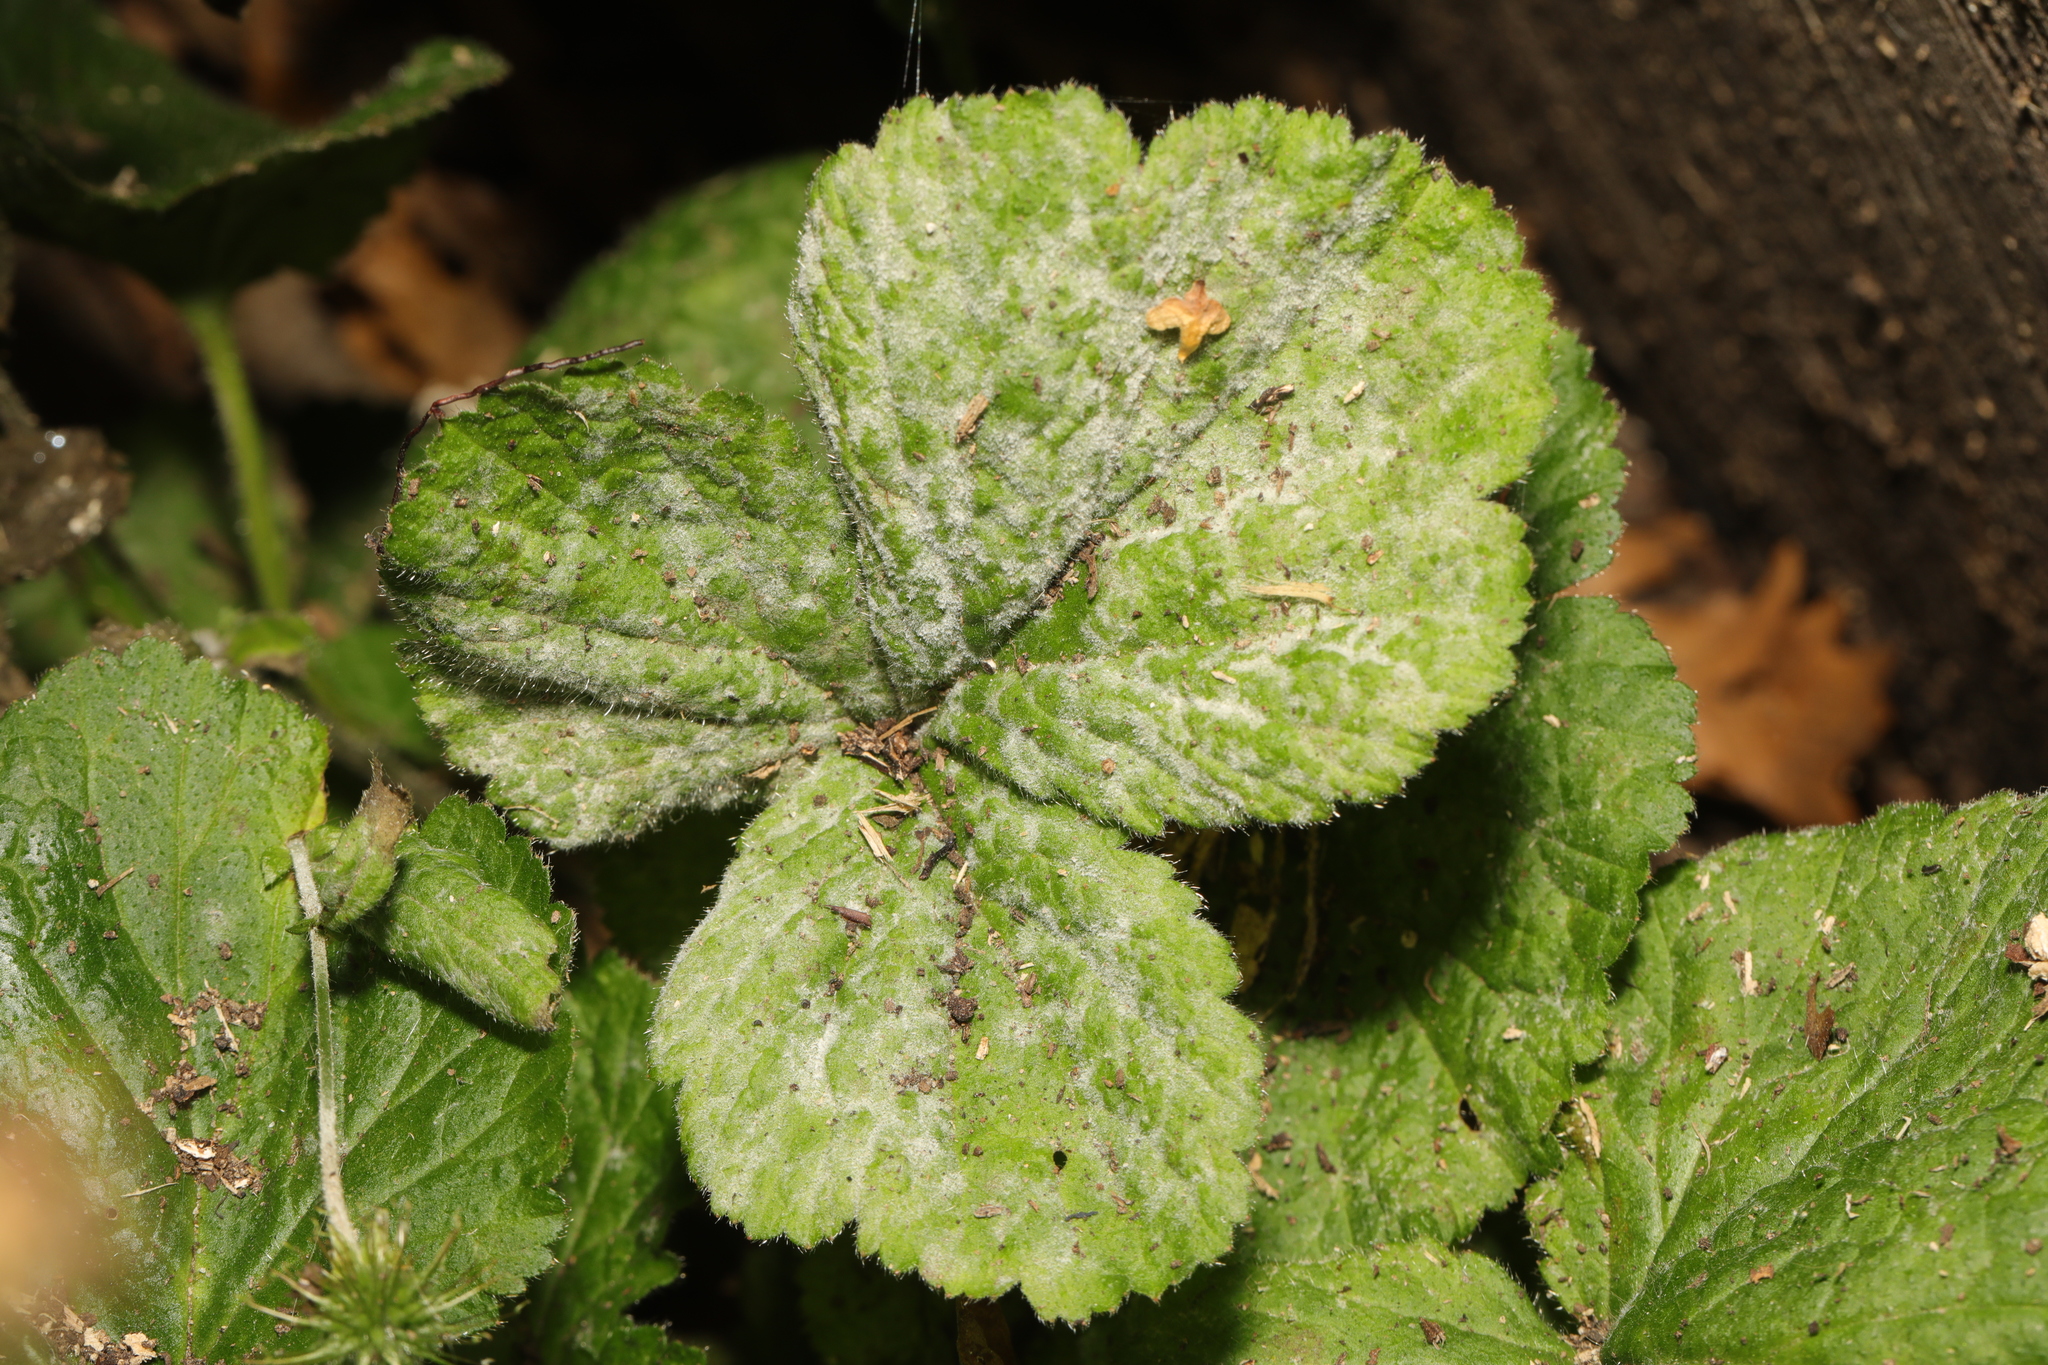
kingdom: Fungi
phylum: Ascomycota
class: Leotiomycetes
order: Helotiales
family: Erysiphaceae
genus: Podosphaera
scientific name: Podosphaera aphanis
